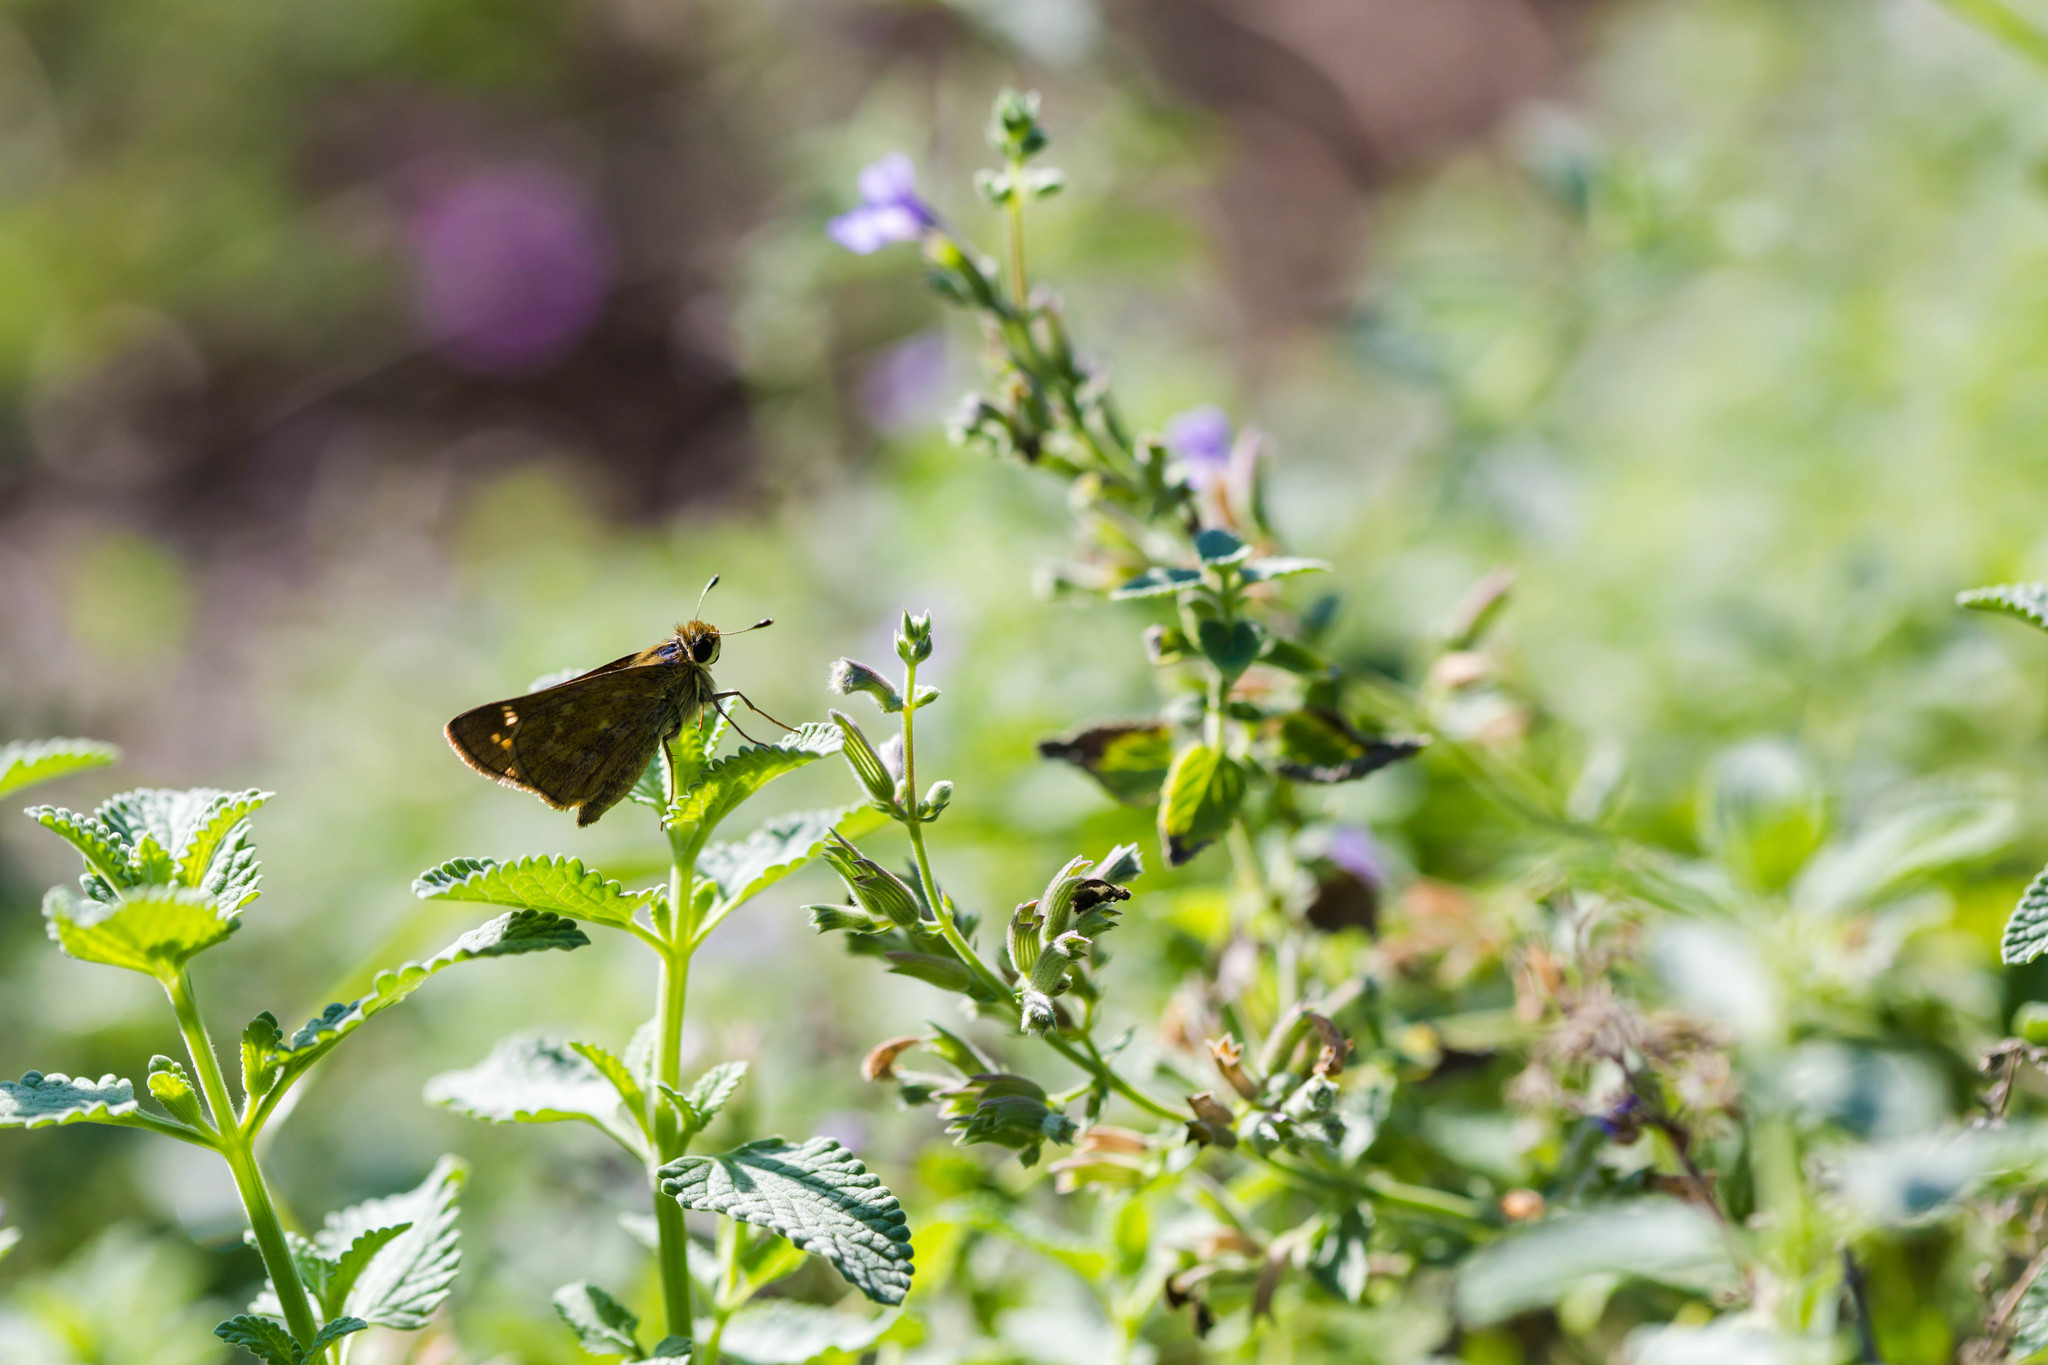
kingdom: Animalia
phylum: Arthropoda
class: Insecta
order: Lepidoptera
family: Hesperiidae
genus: Atalopedes
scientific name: Atalopedes
